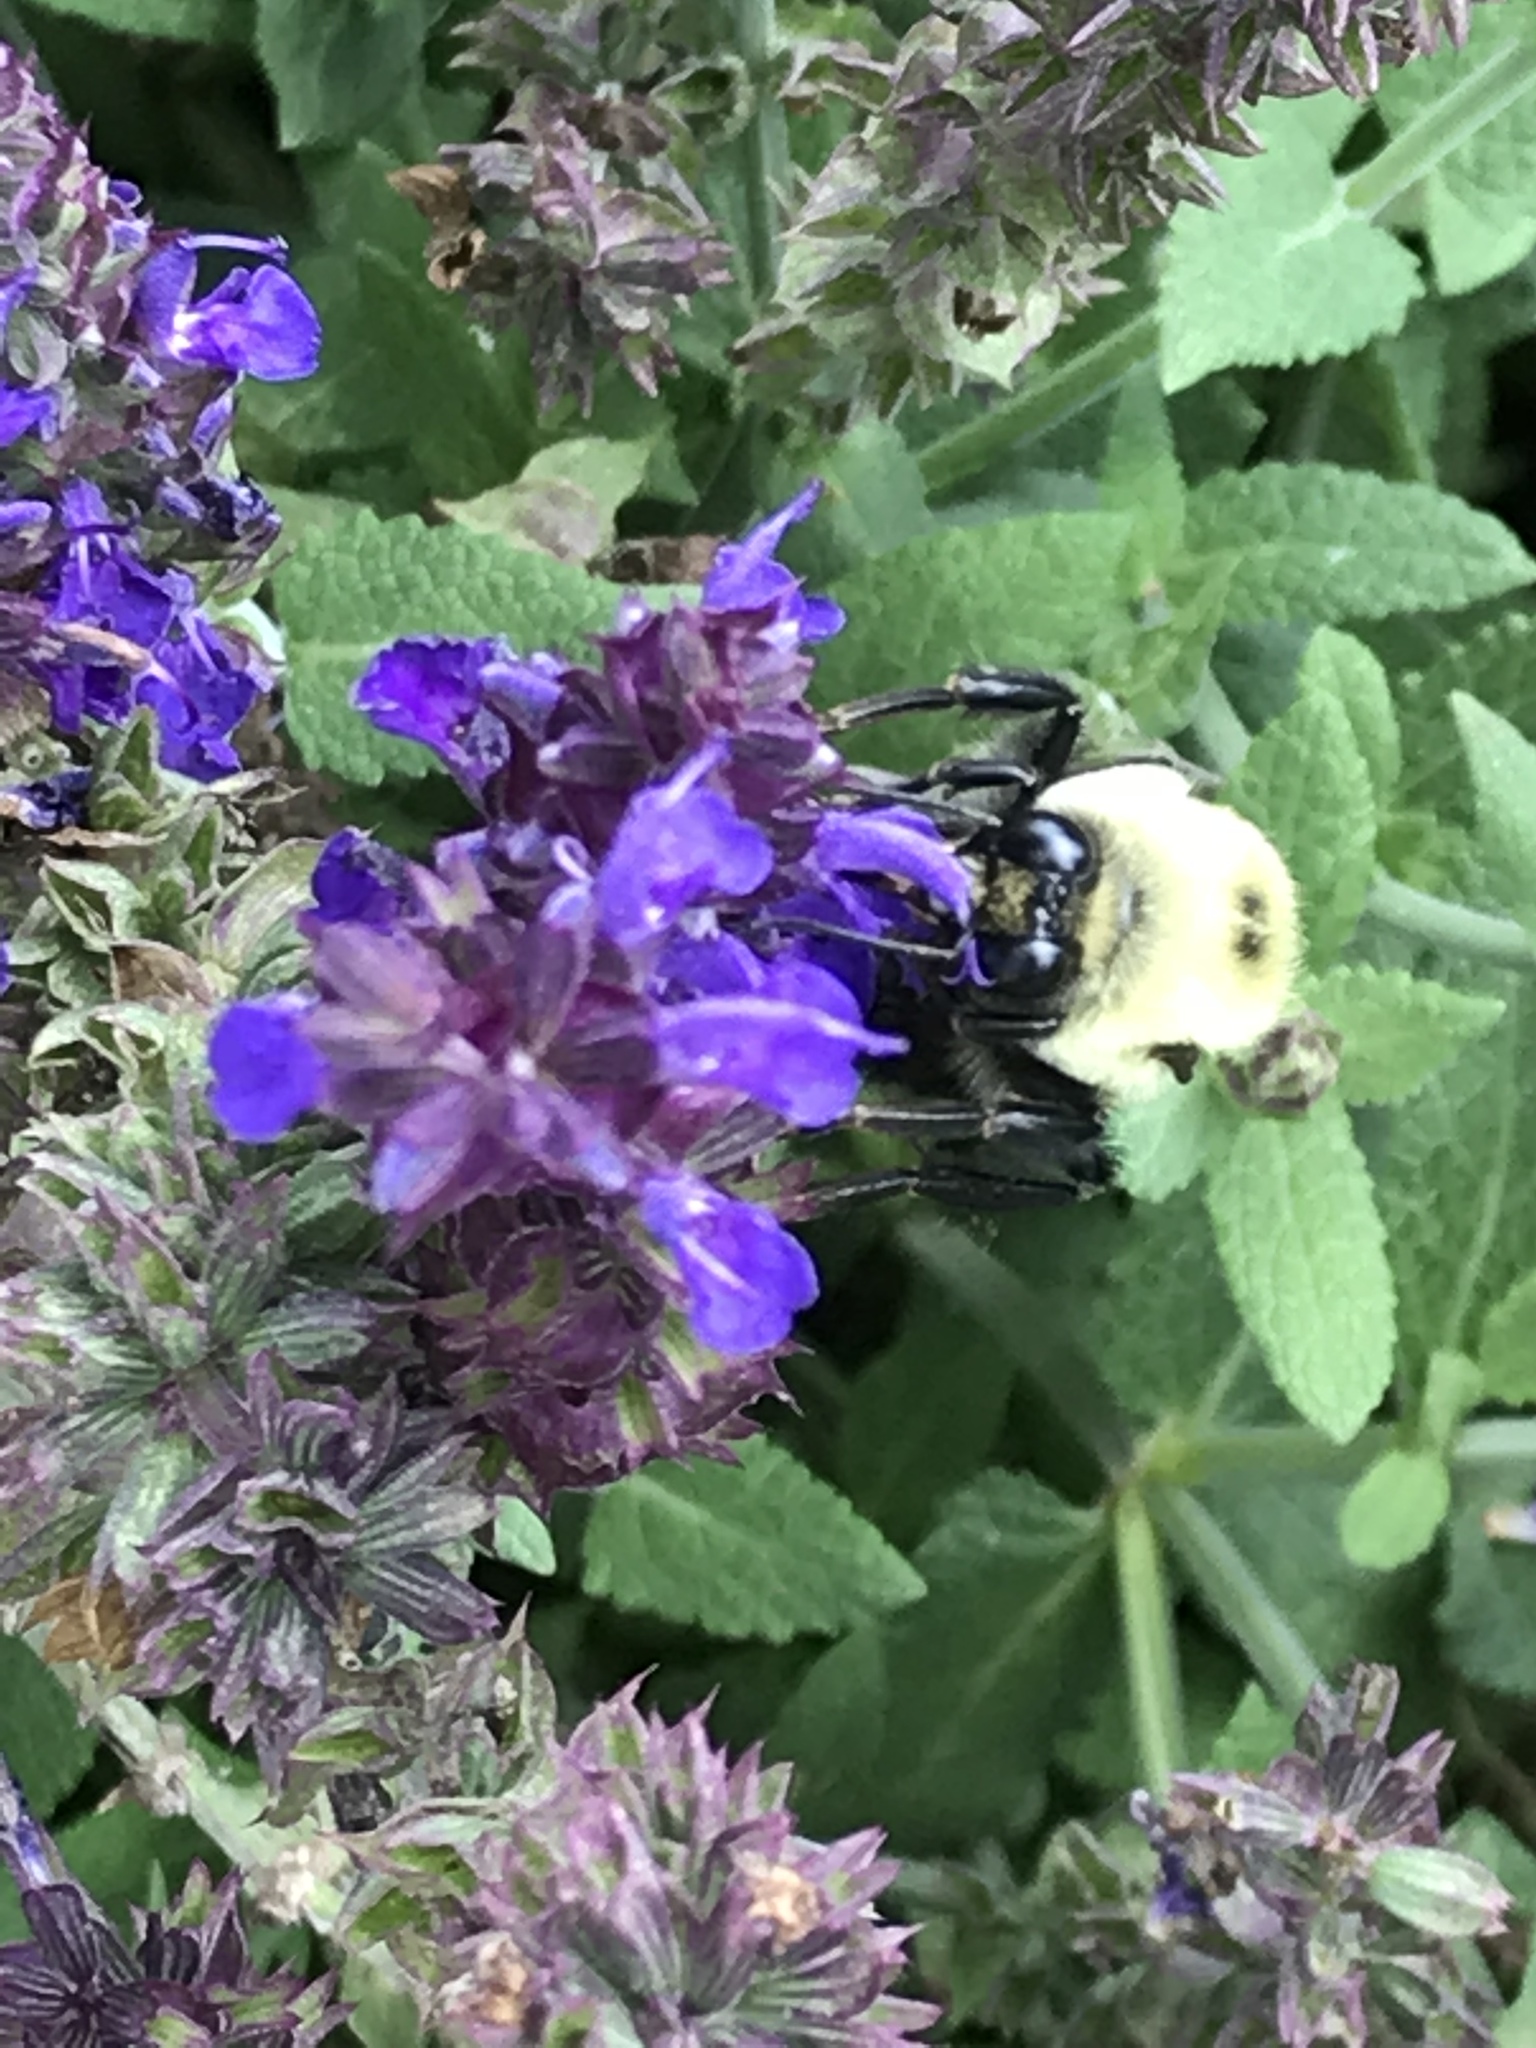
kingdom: Animalia
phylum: Arthropoda
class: Insecta
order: Hymenoptera
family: Apidae
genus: Bombus
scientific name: Bombus griseocollis
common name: Brown-belted bumble bee
